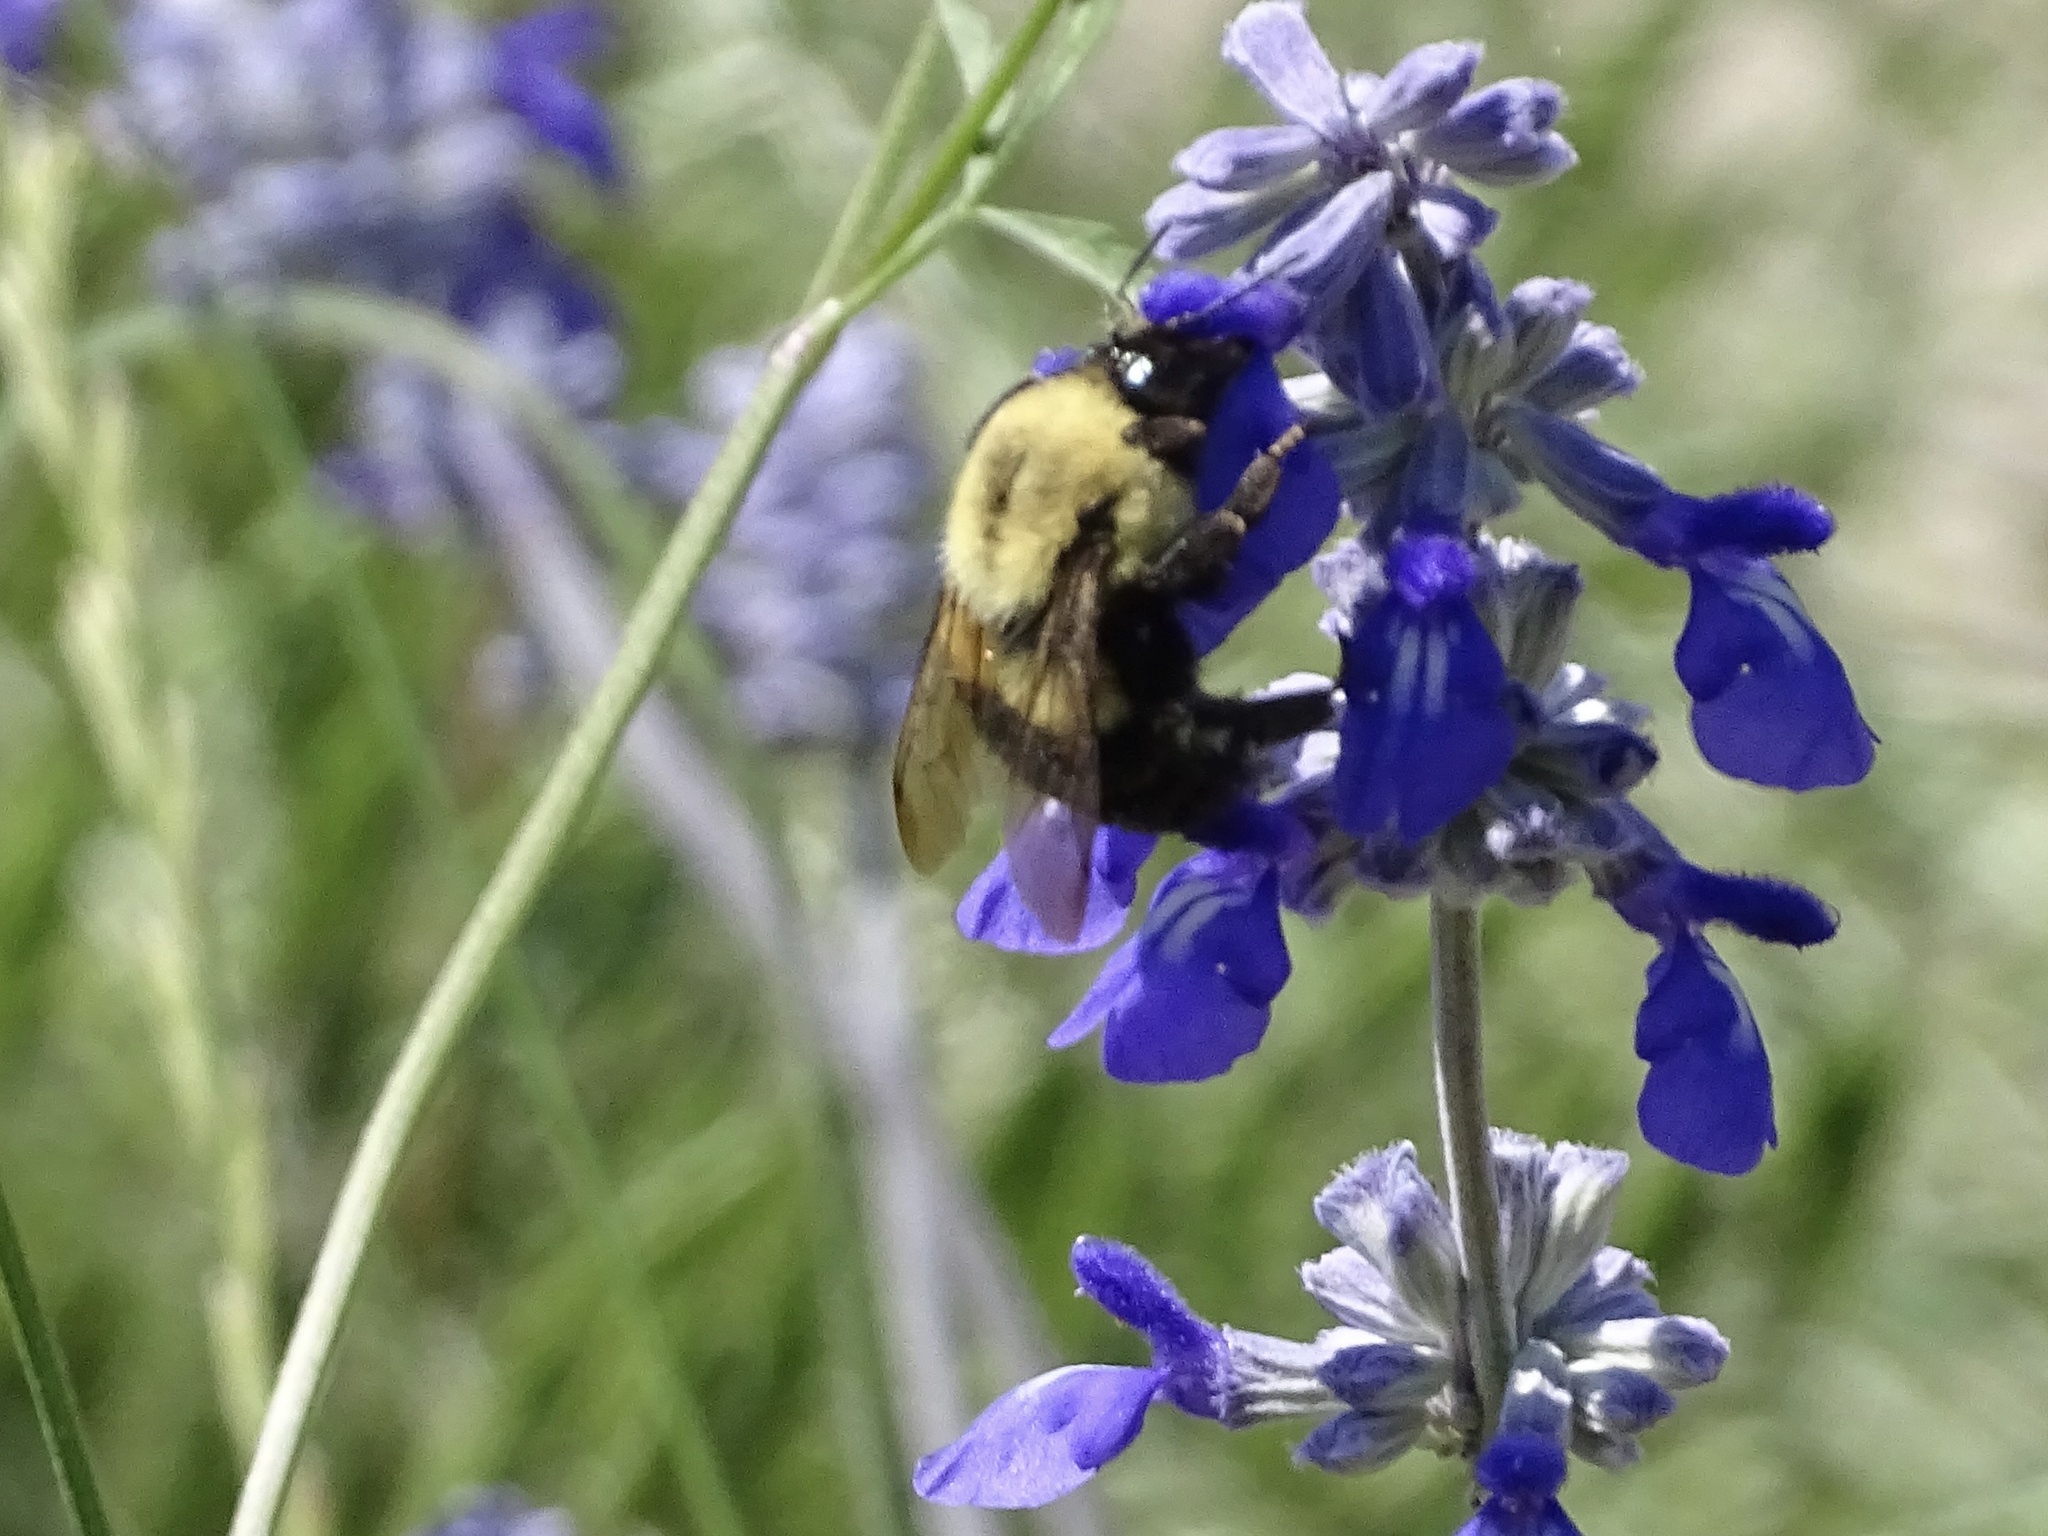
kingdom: Animalia
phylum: Arthropoda
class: Insecta
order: Hymenoptera
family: Apidae
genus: Bombus
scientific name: Bombus impatiens
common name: Common eastern bumble bee
